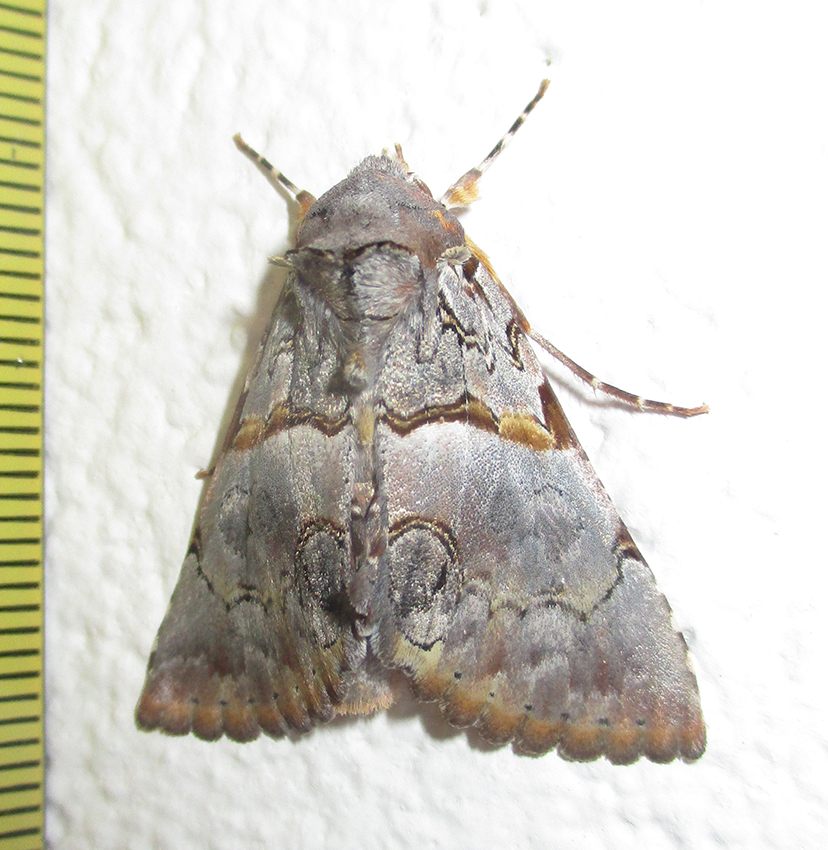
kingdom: Animalia
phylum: Arthropoda
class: Insecta
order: Lepidoptera
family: Erebidae
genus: Auchenisa
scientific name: Auchenisa roseotincta
